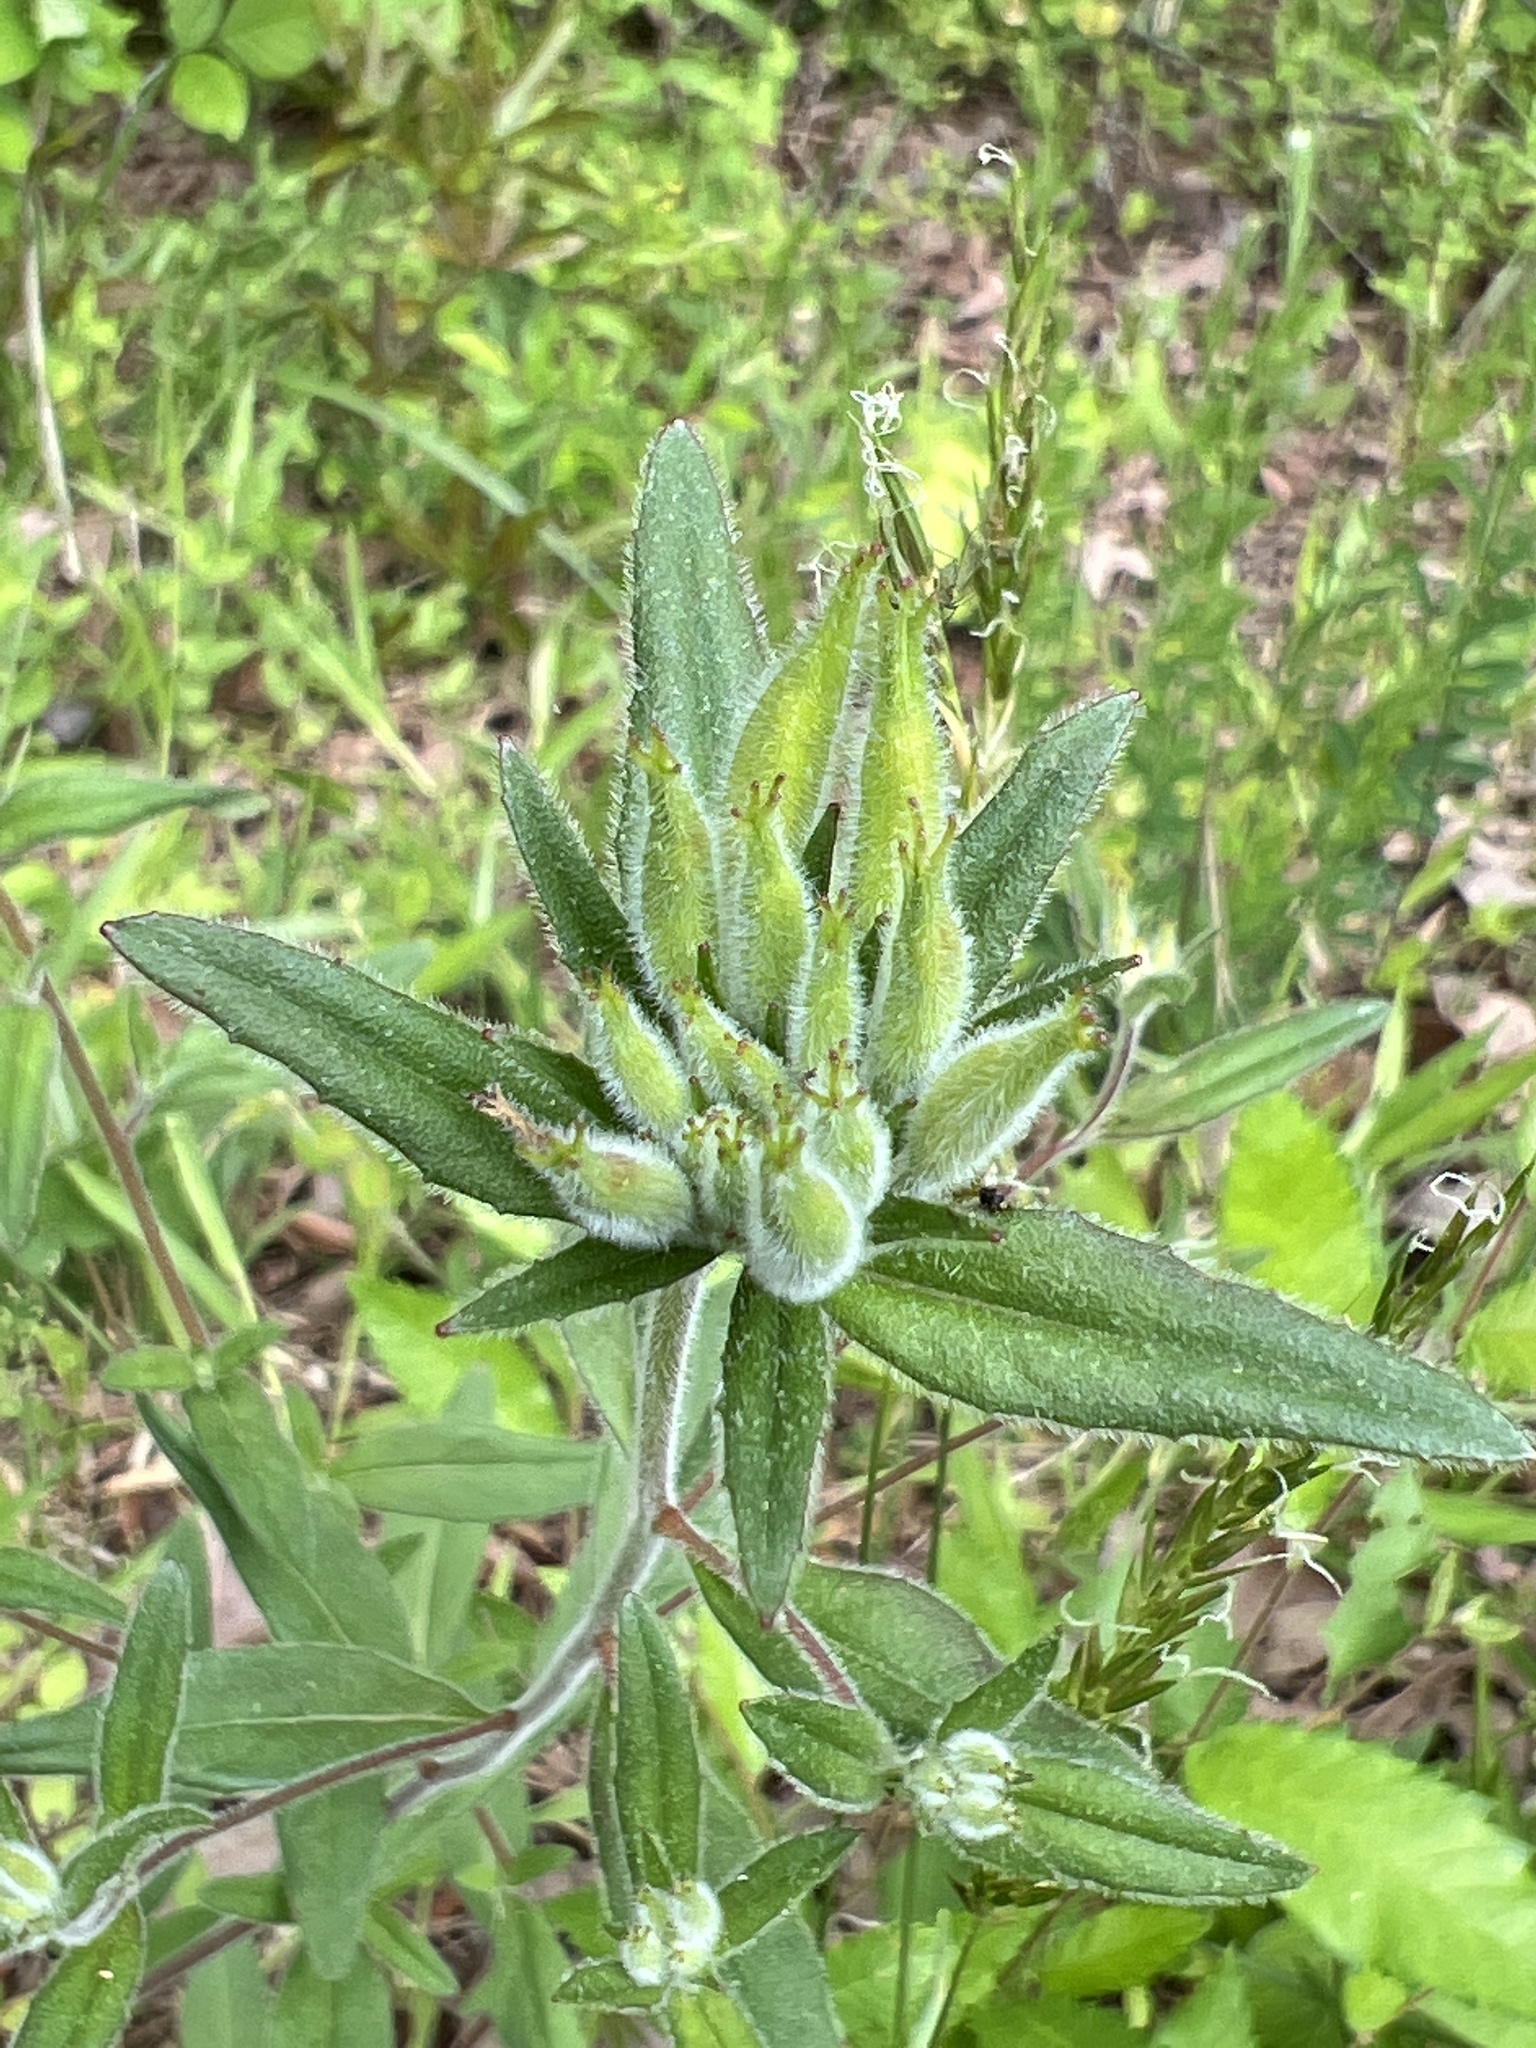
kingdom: Plantae
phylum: Tracheophyta
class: Magnoliopsida
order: Myrtales
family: Onagraceae
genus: Oenothera
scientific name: Oenothera fruticosa
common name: Southern sundrops
